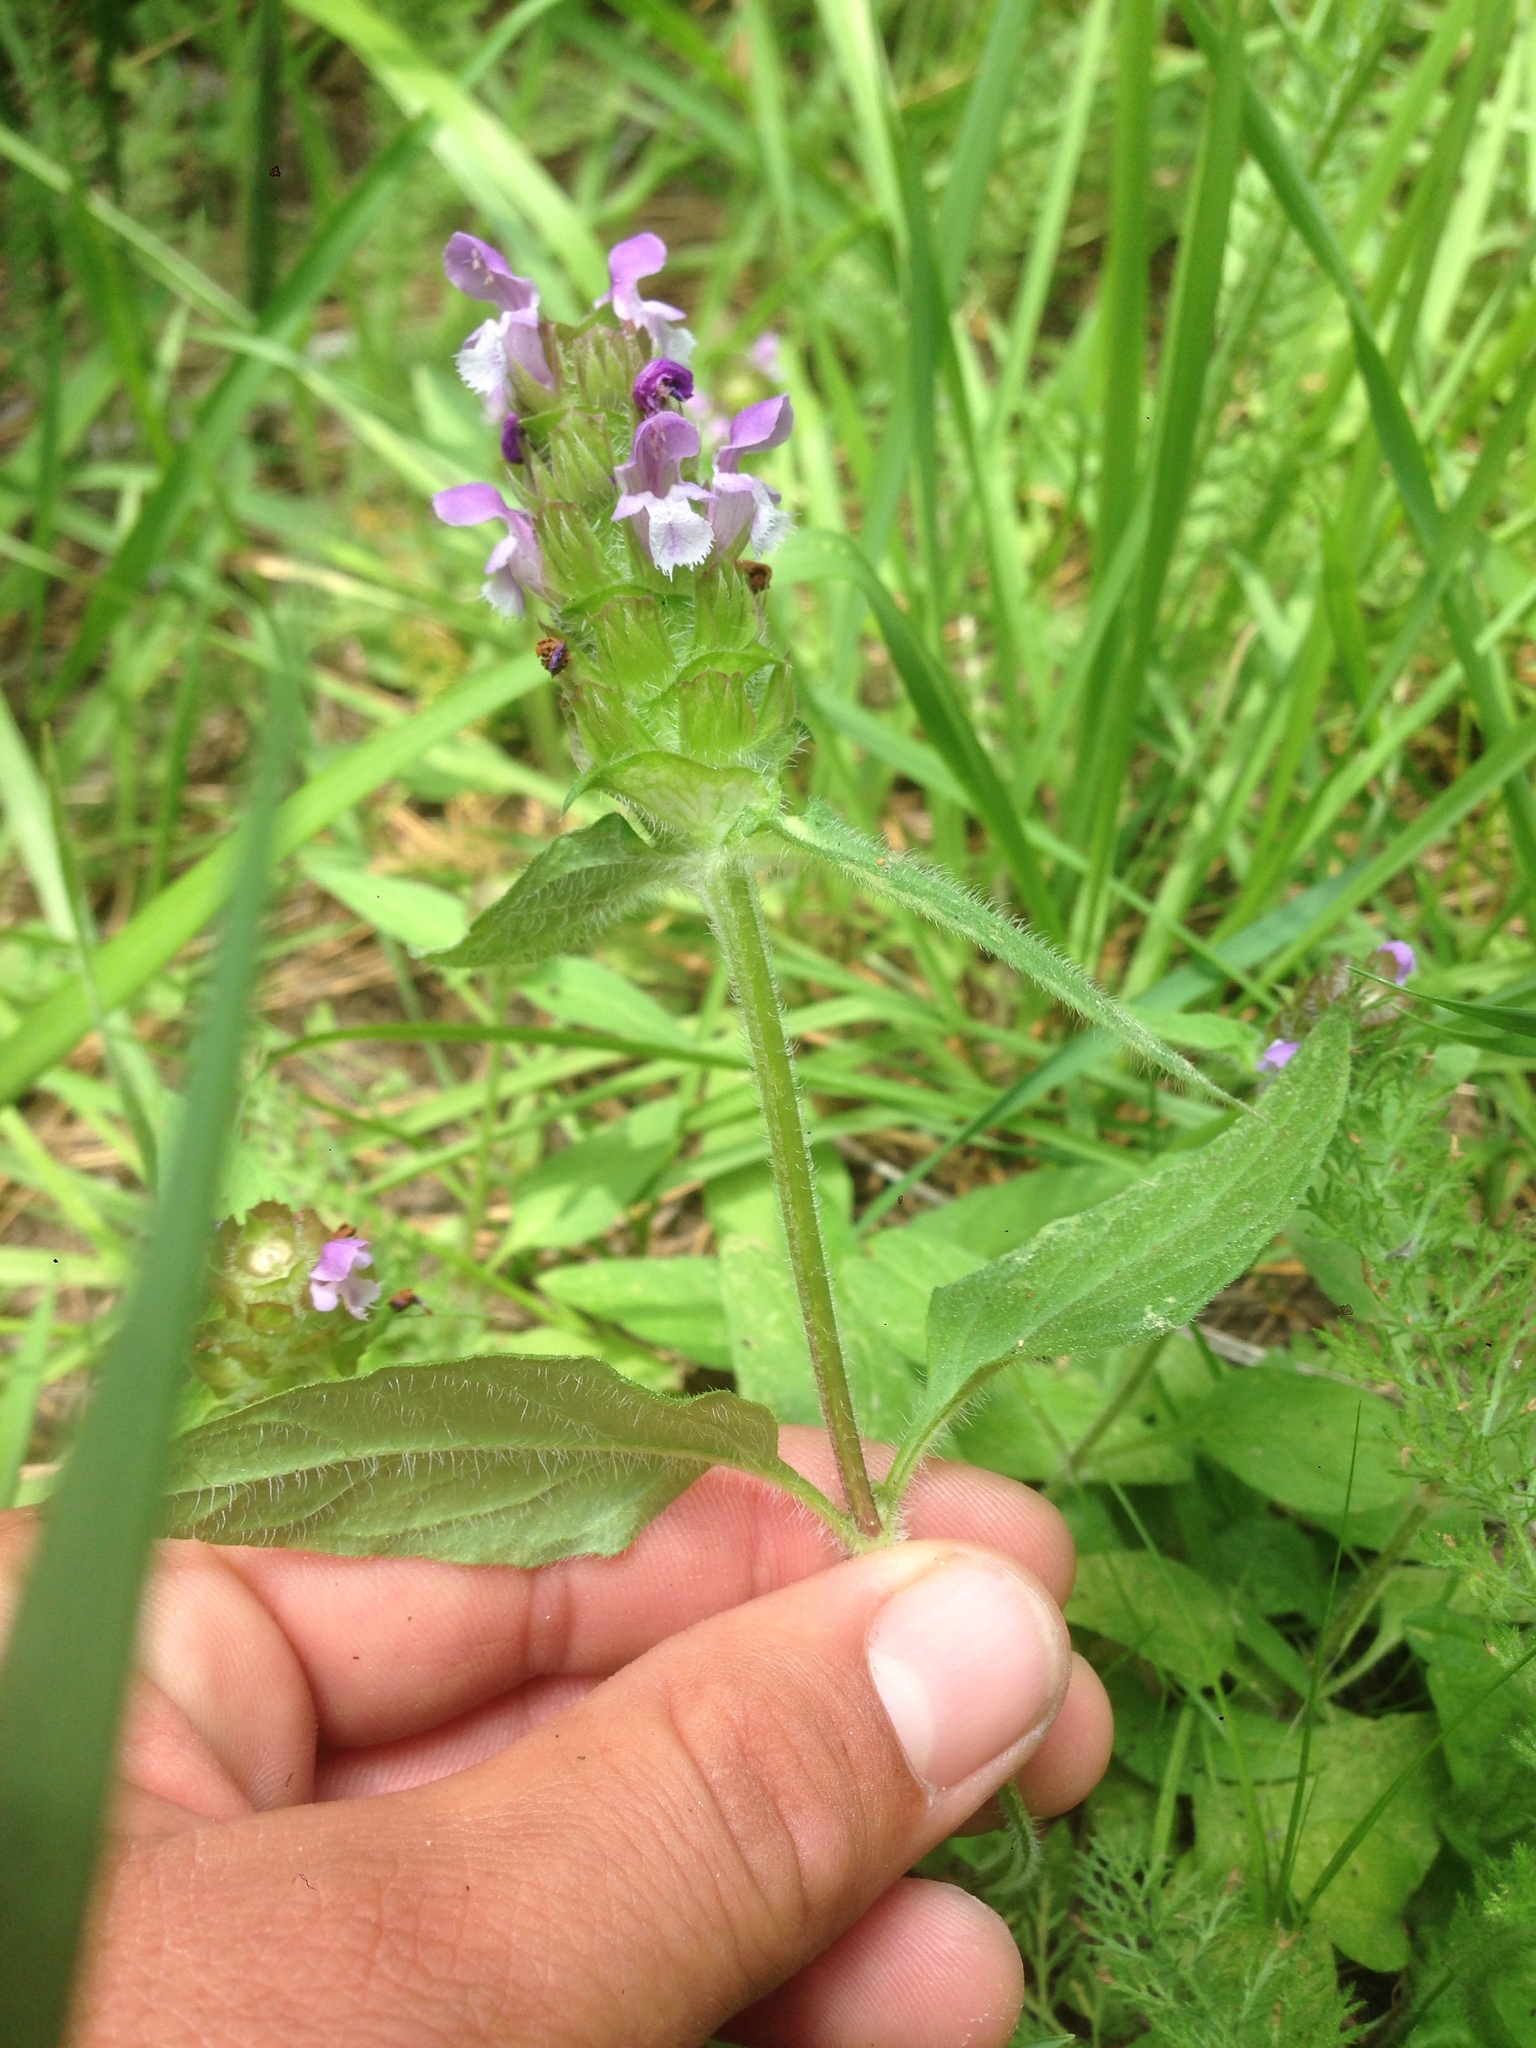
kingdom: Plantae
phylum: Tracheophyta
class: Magnoliopsida
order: Lamiales
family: Lamiaceae
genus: Prunella
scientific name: Prunella vulgaris
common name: Heal-all
